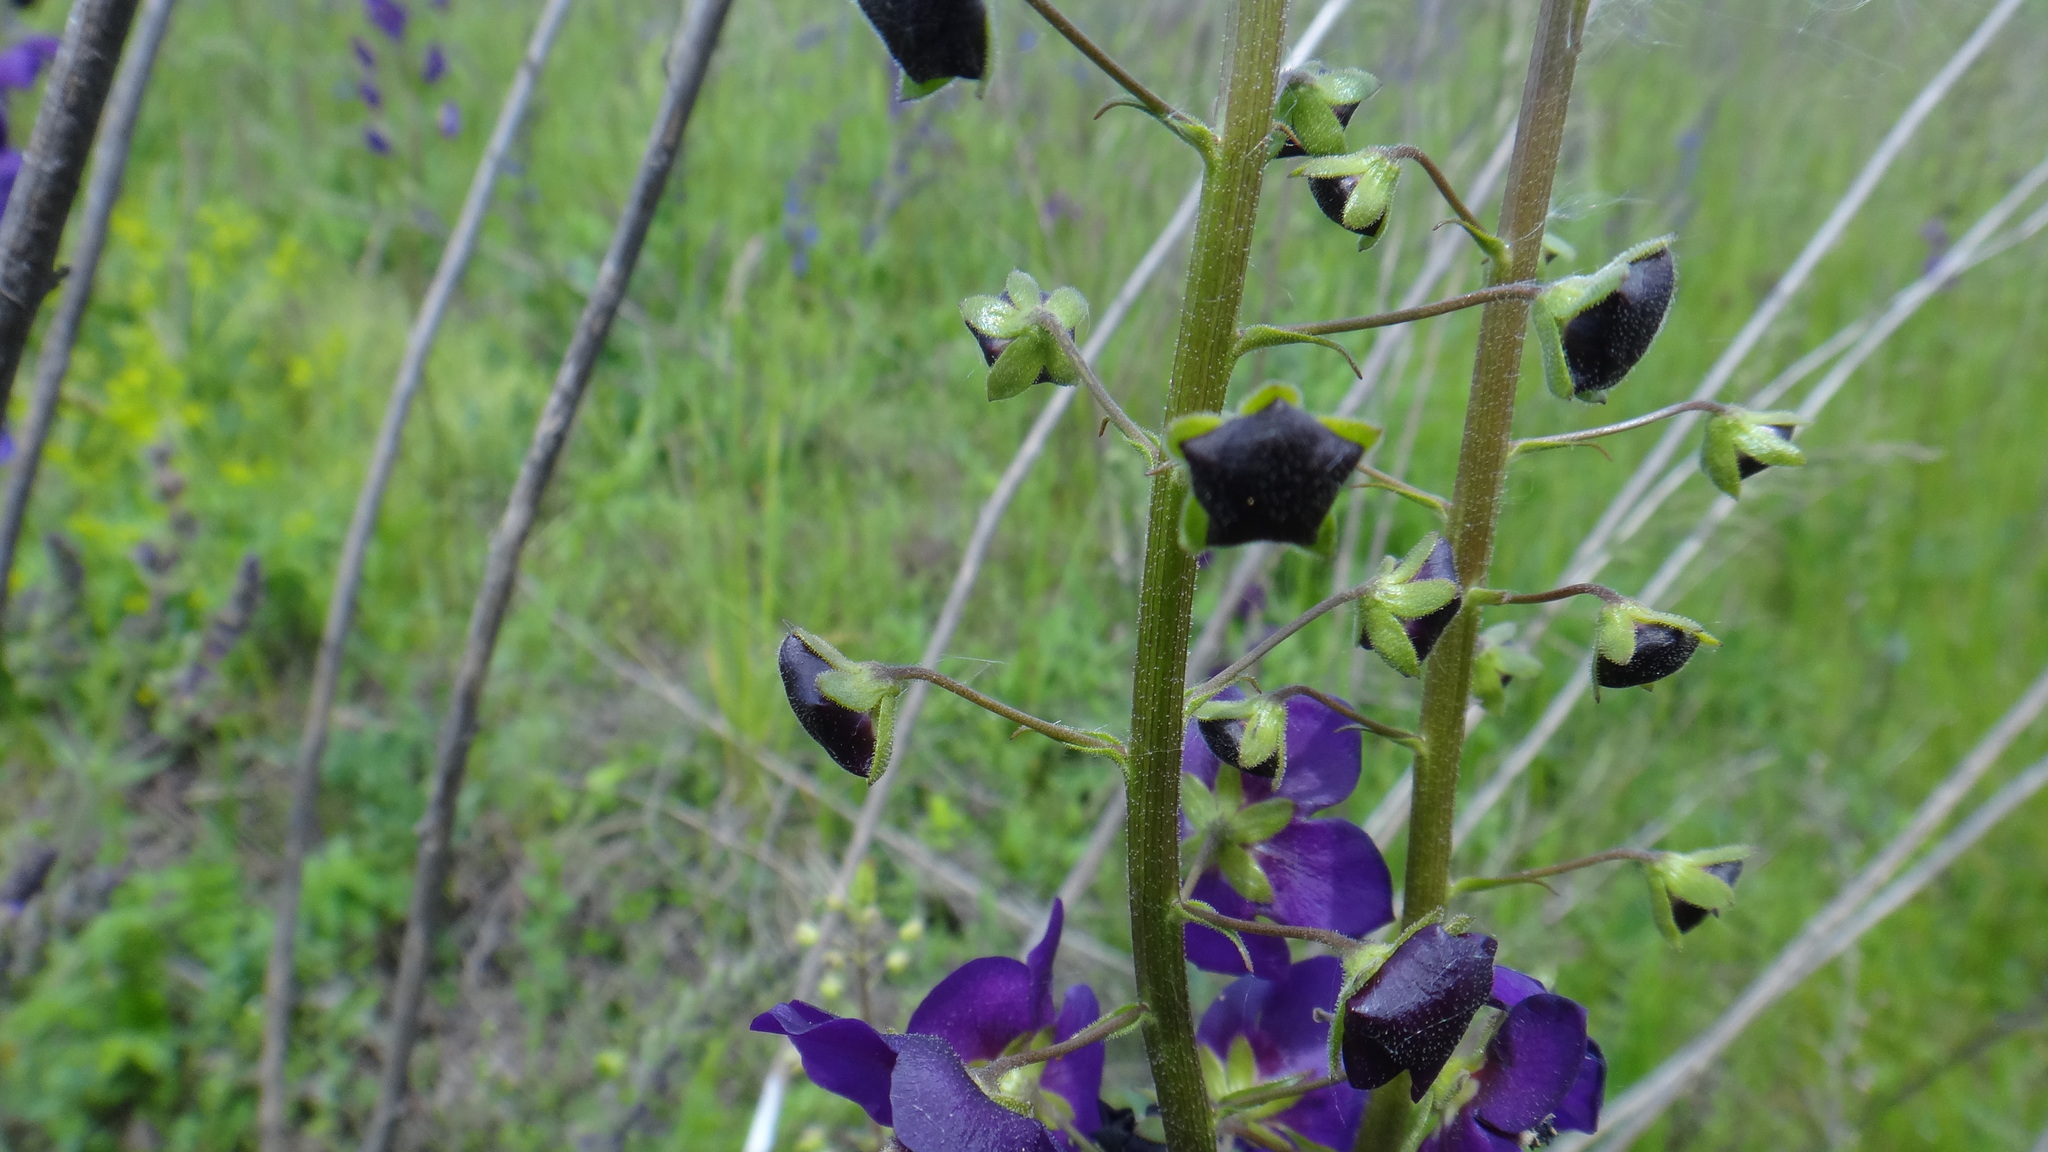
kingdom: Plantae
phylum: Tracheophyta
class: Magnoliopsida
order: Lamiales
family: Scrophulariaceae
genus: Verbascum
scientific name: Verbascum phoeniceum
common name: Purple mullein
